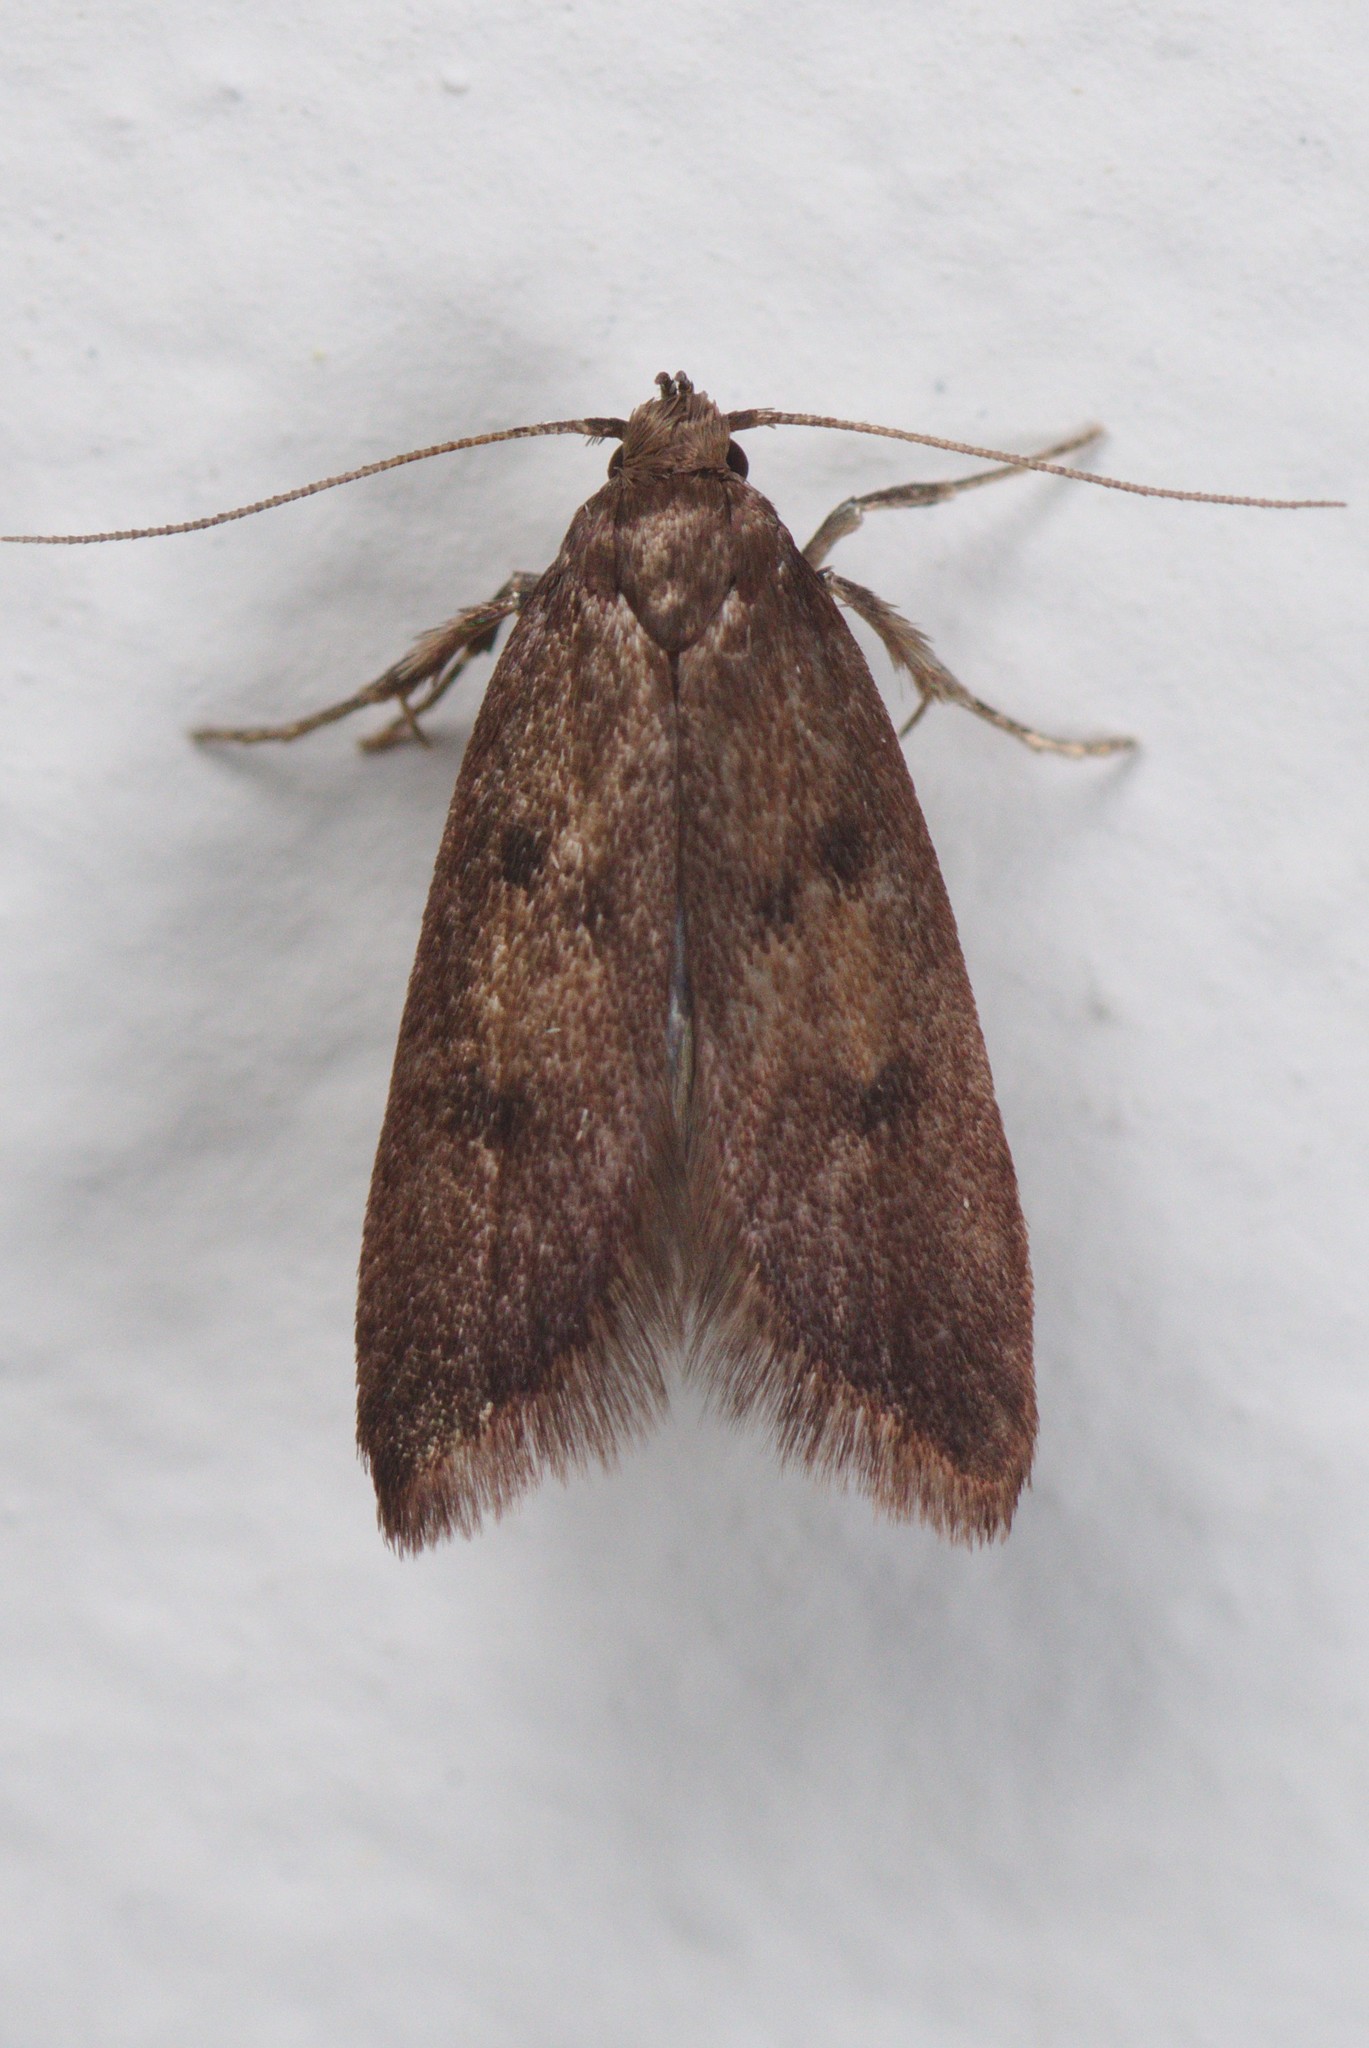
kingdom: Animalia
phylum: Arthropoda
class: Insecta
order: Lepidoptera
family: Oecophoridae
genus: Tachystola
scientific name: Tachystola acroxantha
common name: Ruddy streak
